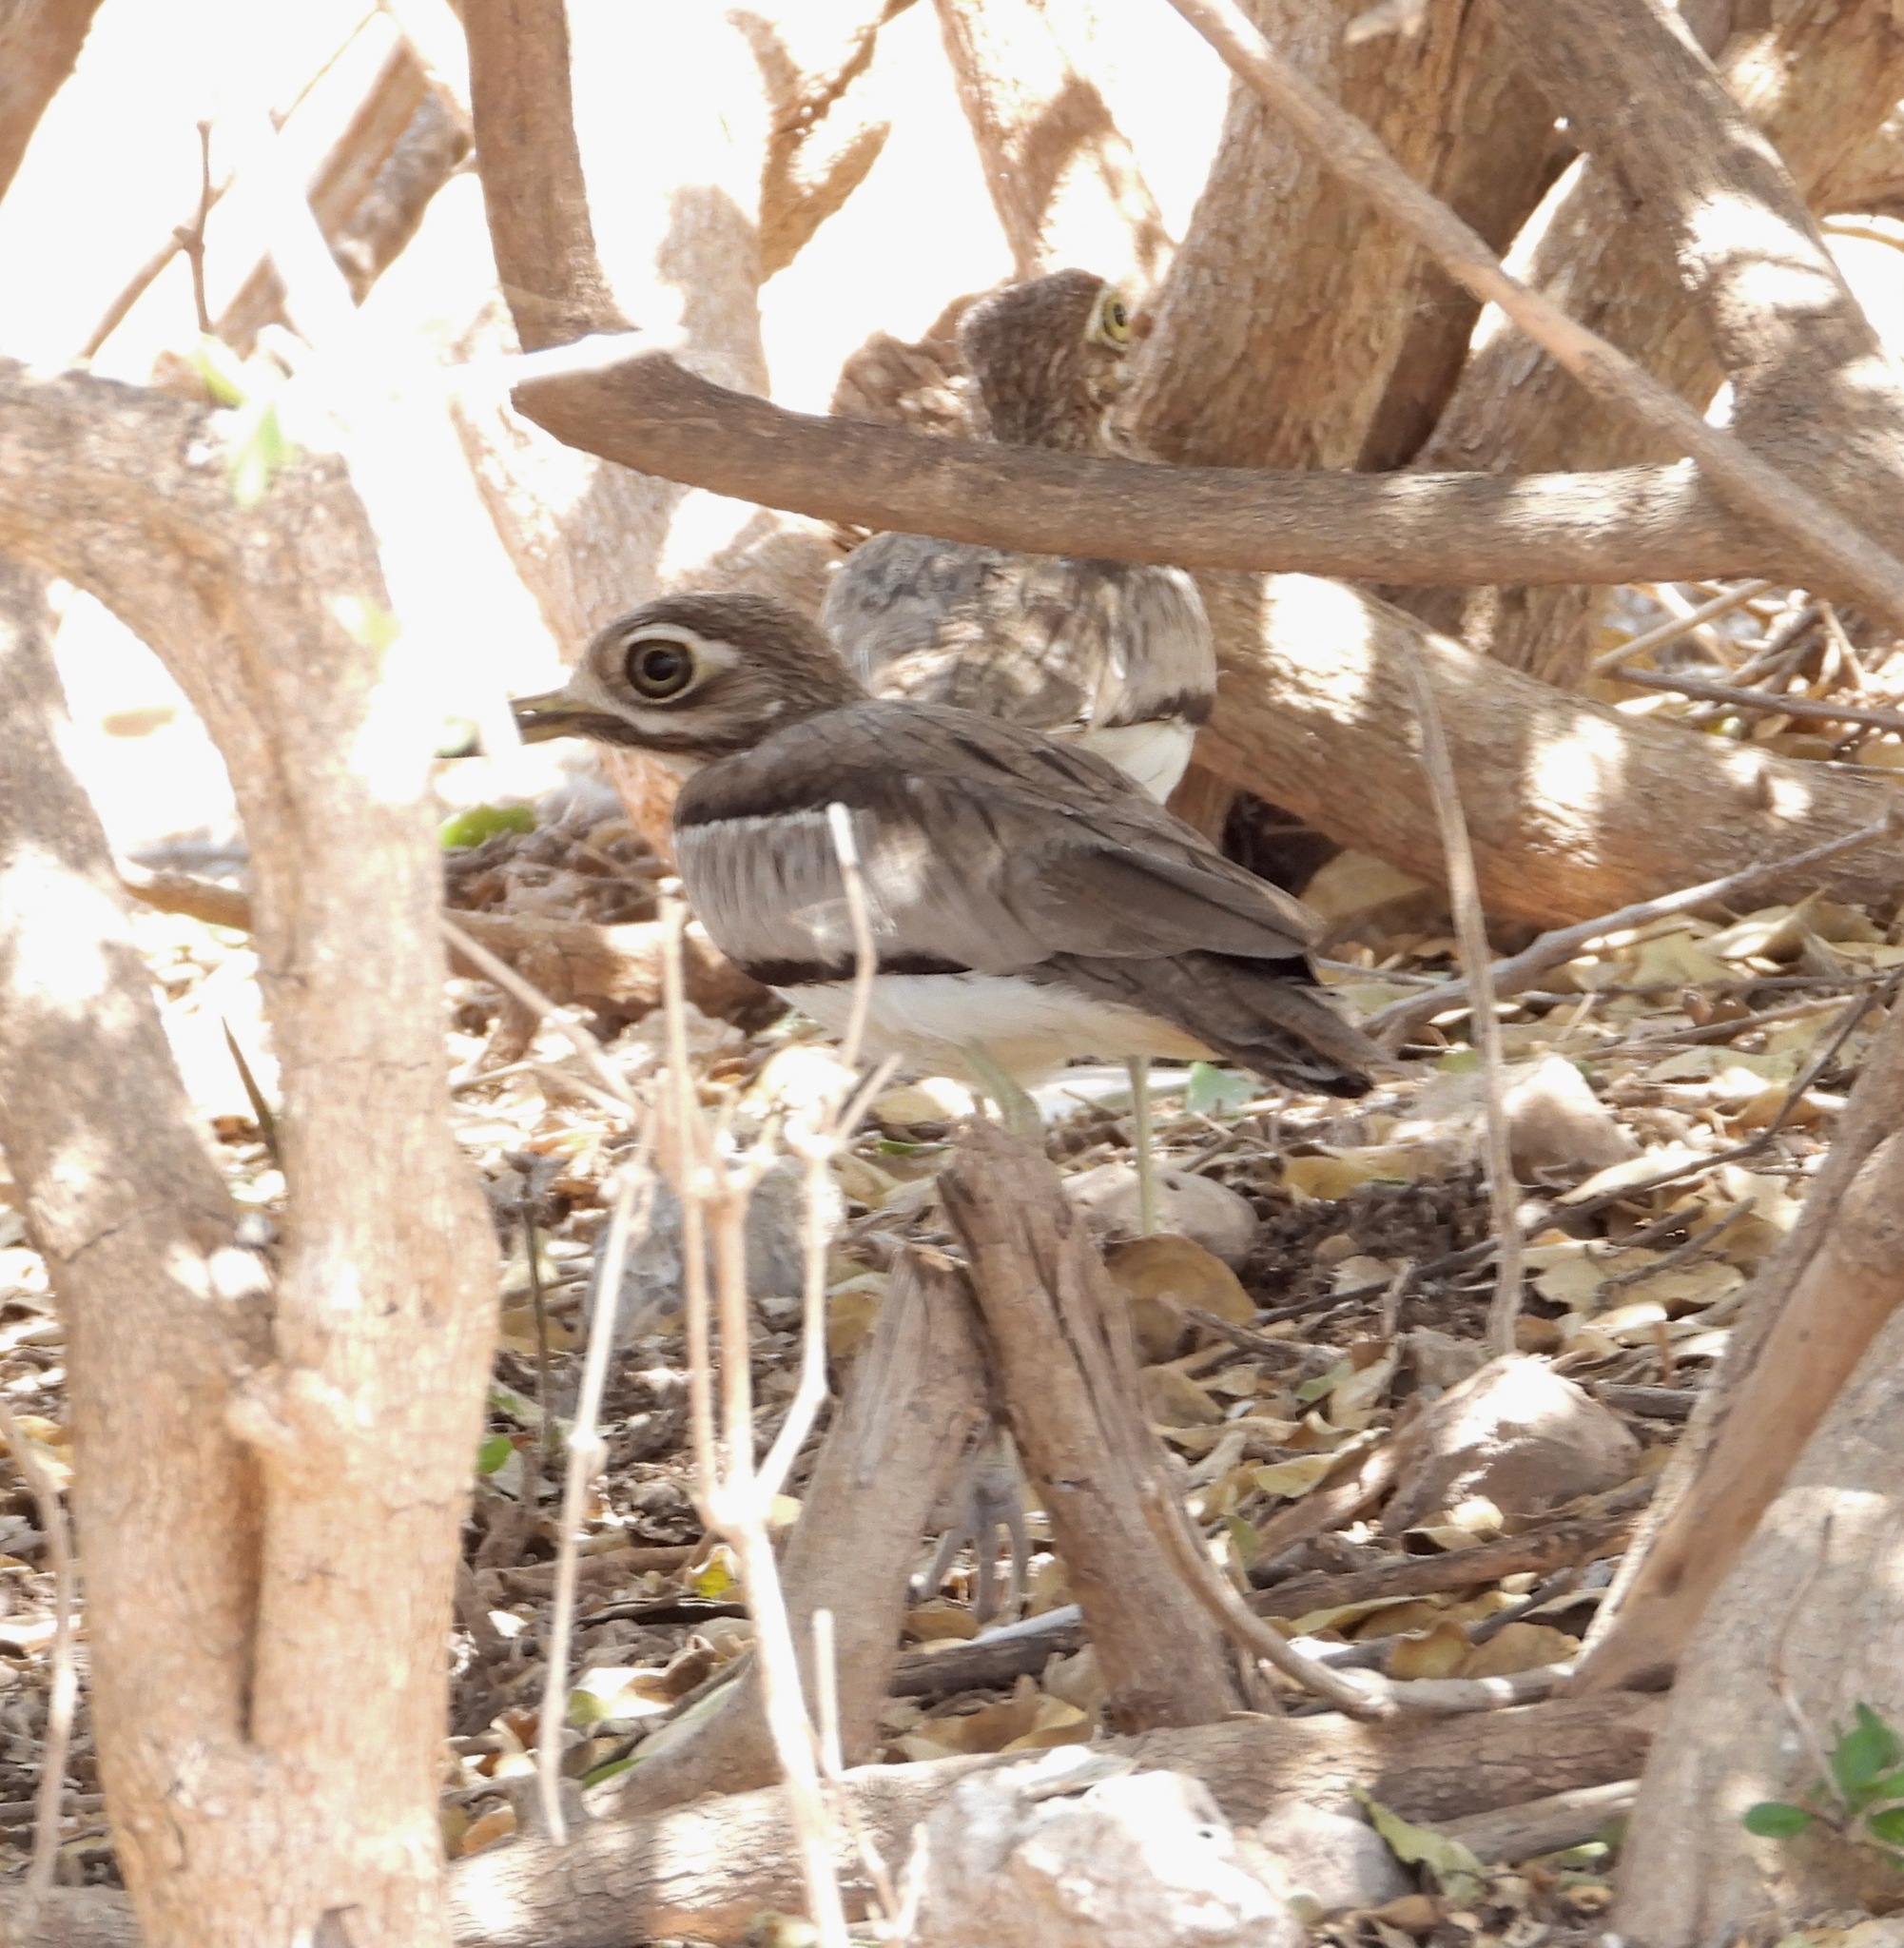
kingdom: Animalia
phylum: Chordata
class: Aves
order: Charadriiformes
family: Burhinidae
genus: Burhinus
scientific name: Burhinus vermiculatus
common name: Water thick-knee
